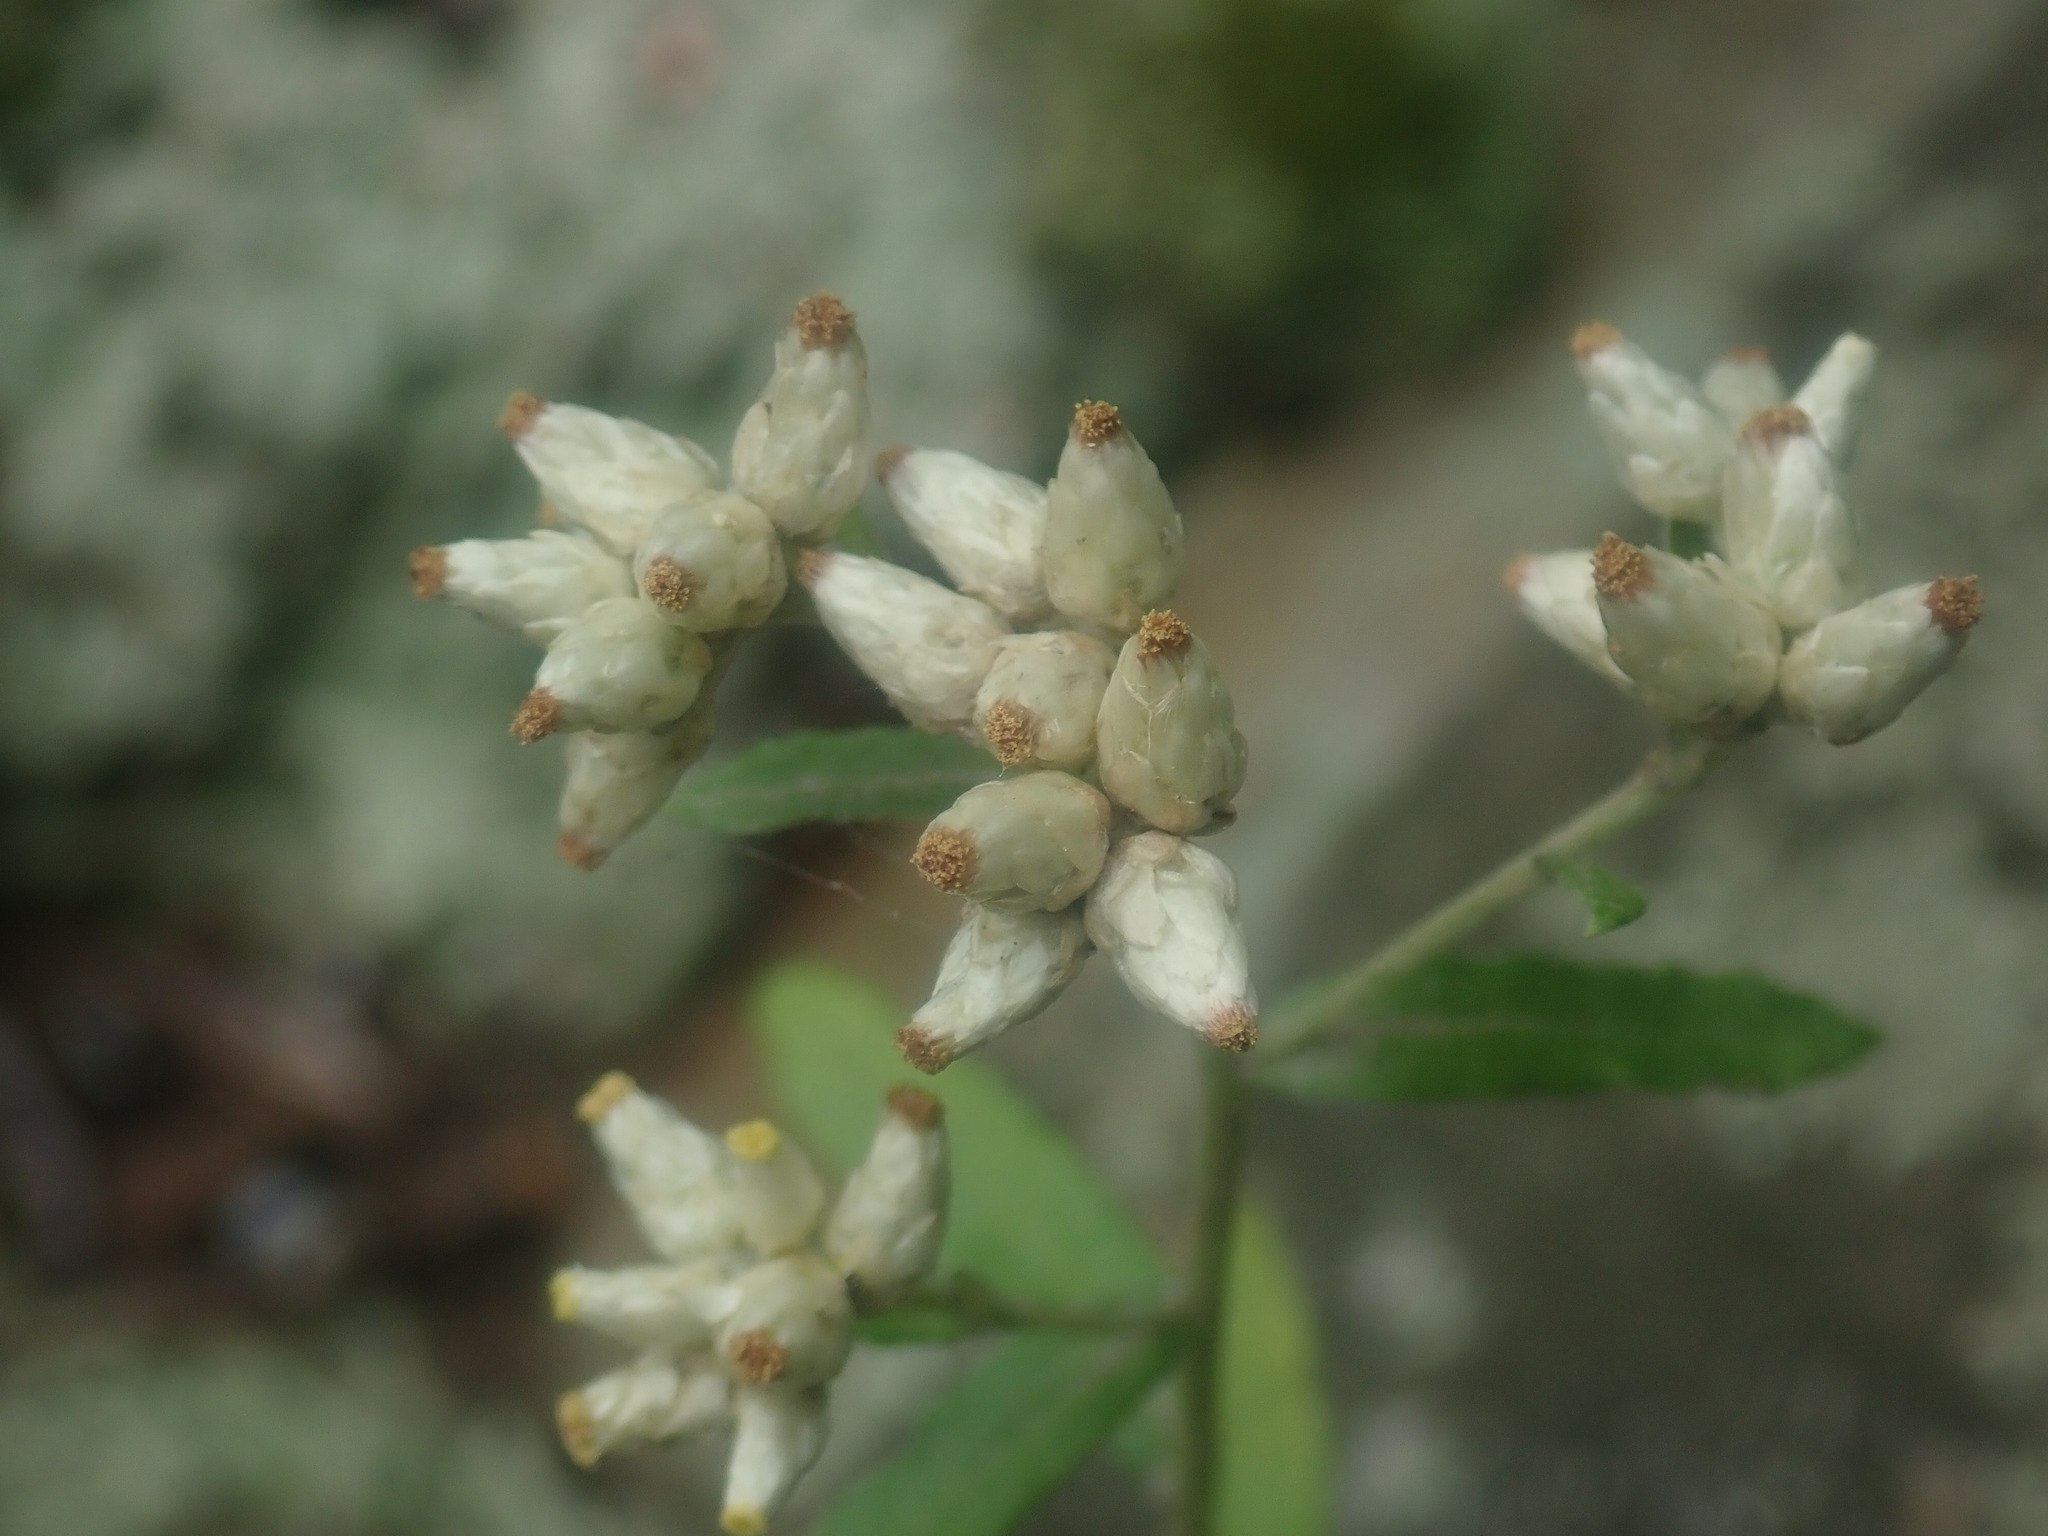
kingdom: Plantae
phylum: Tracheophyta
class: Magnoliopsida
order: Asterales
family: Asteraceae
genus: Pseudognaphalium
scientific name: Pseudognaphalium obtusifolium
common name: Eastern rabbit-tobacco
